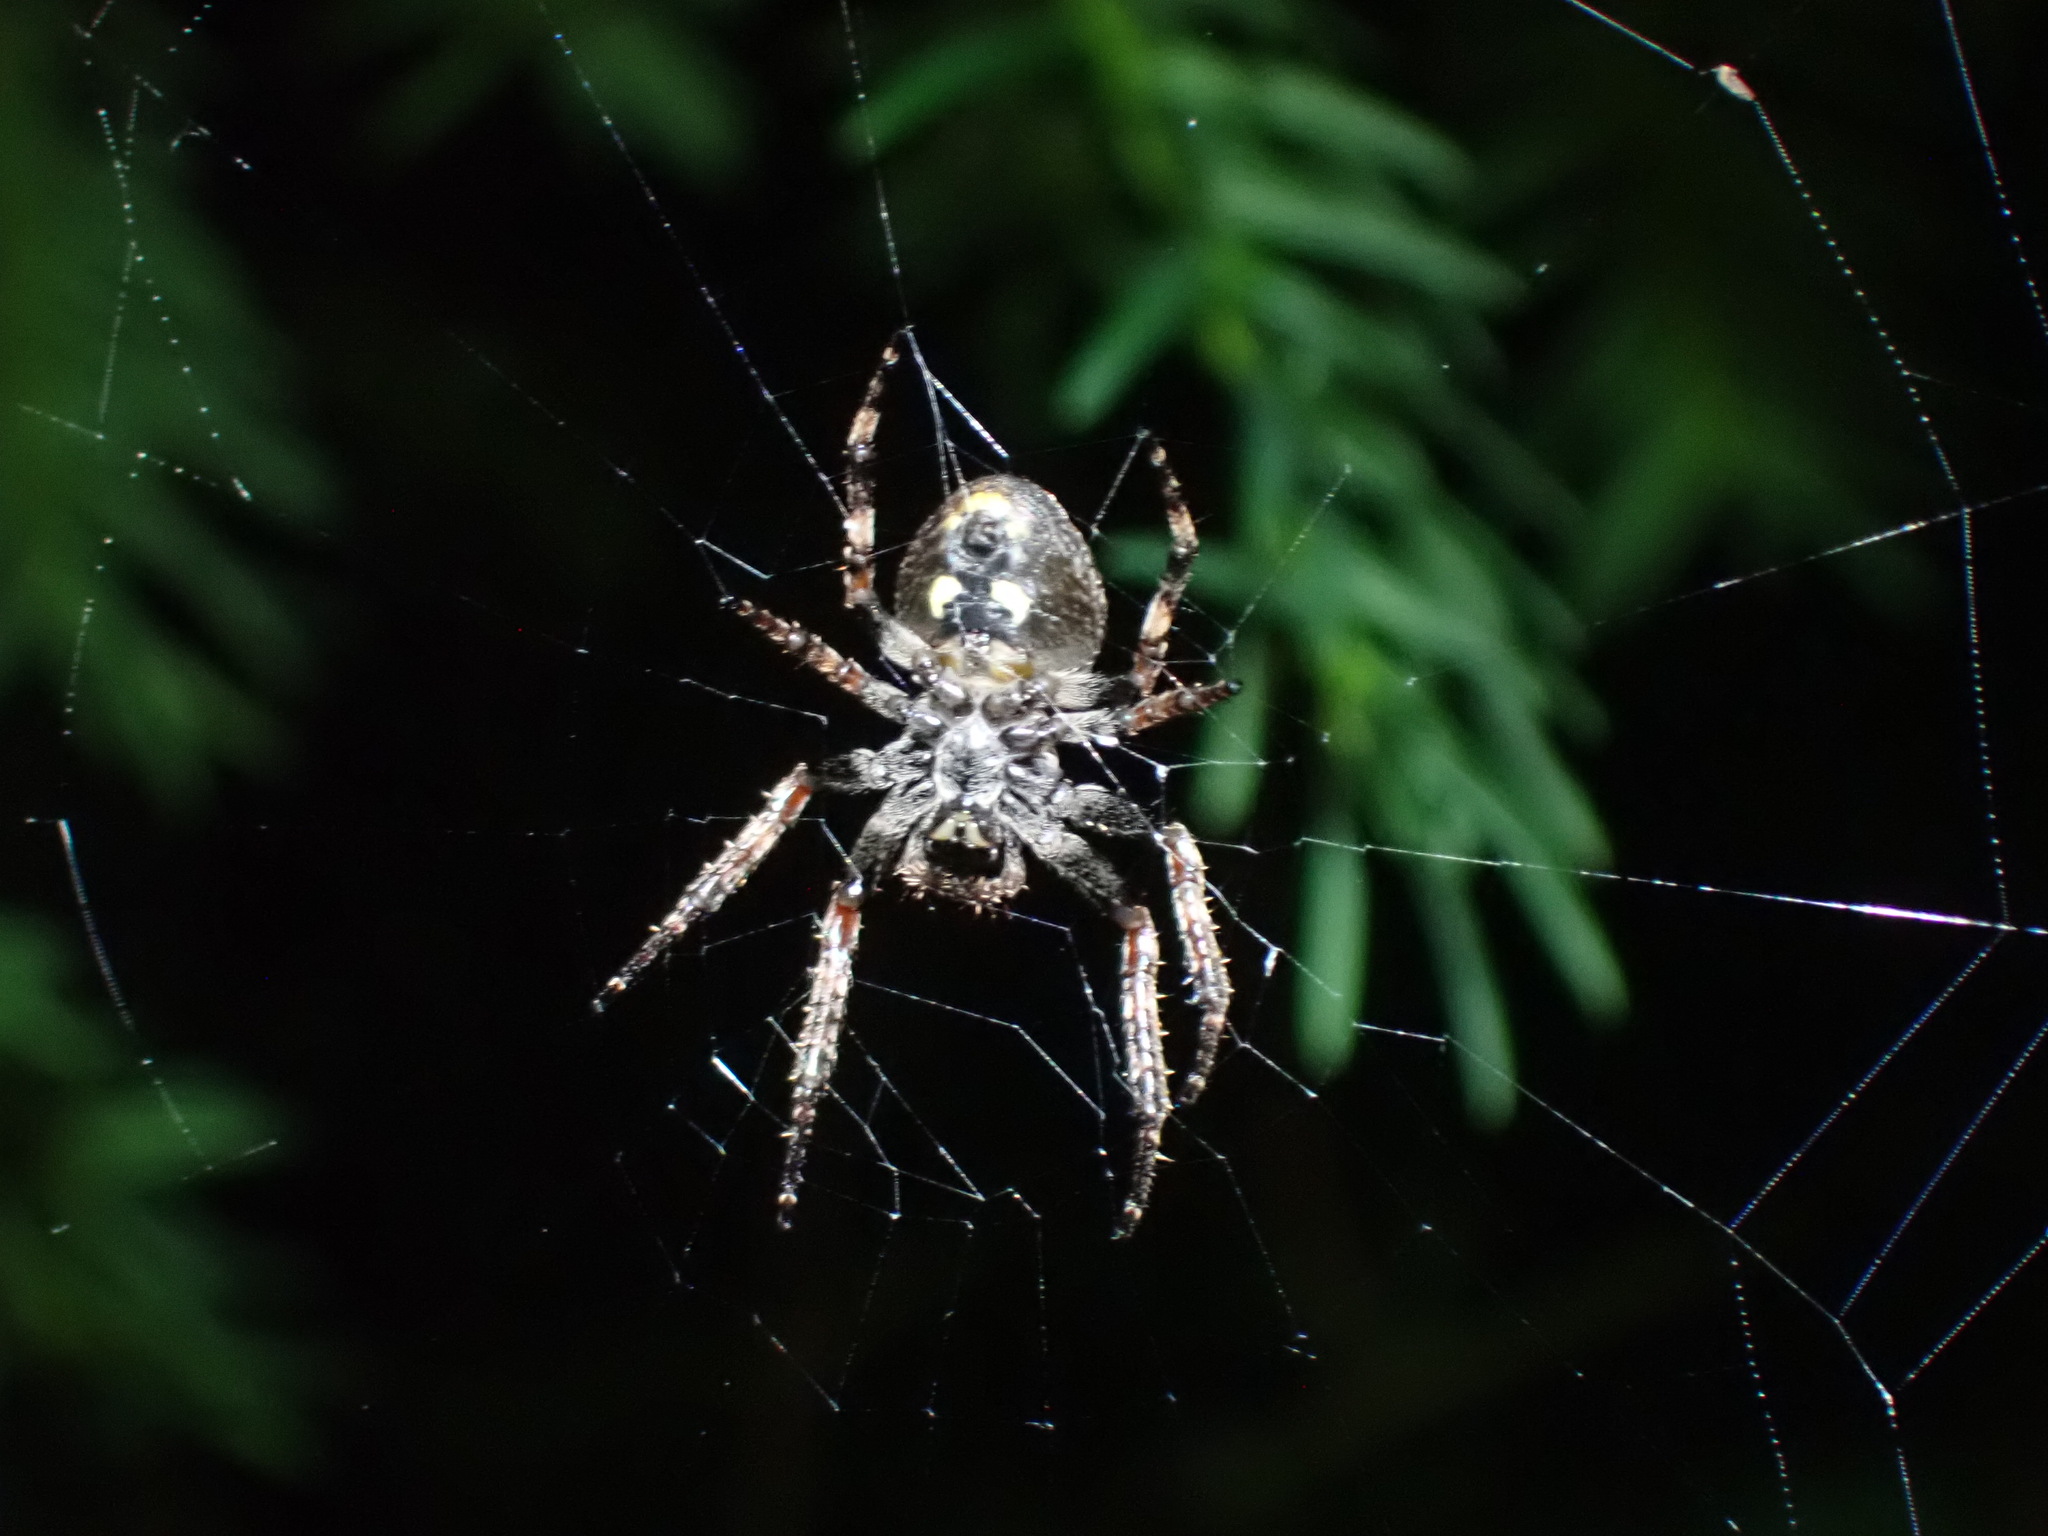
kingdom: Animalia
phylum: Arthropoda
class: Arachnida
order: Araneae
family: Araneidae
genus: Nuctenea
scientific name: Nuctenea umbratica
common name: Toad spider
